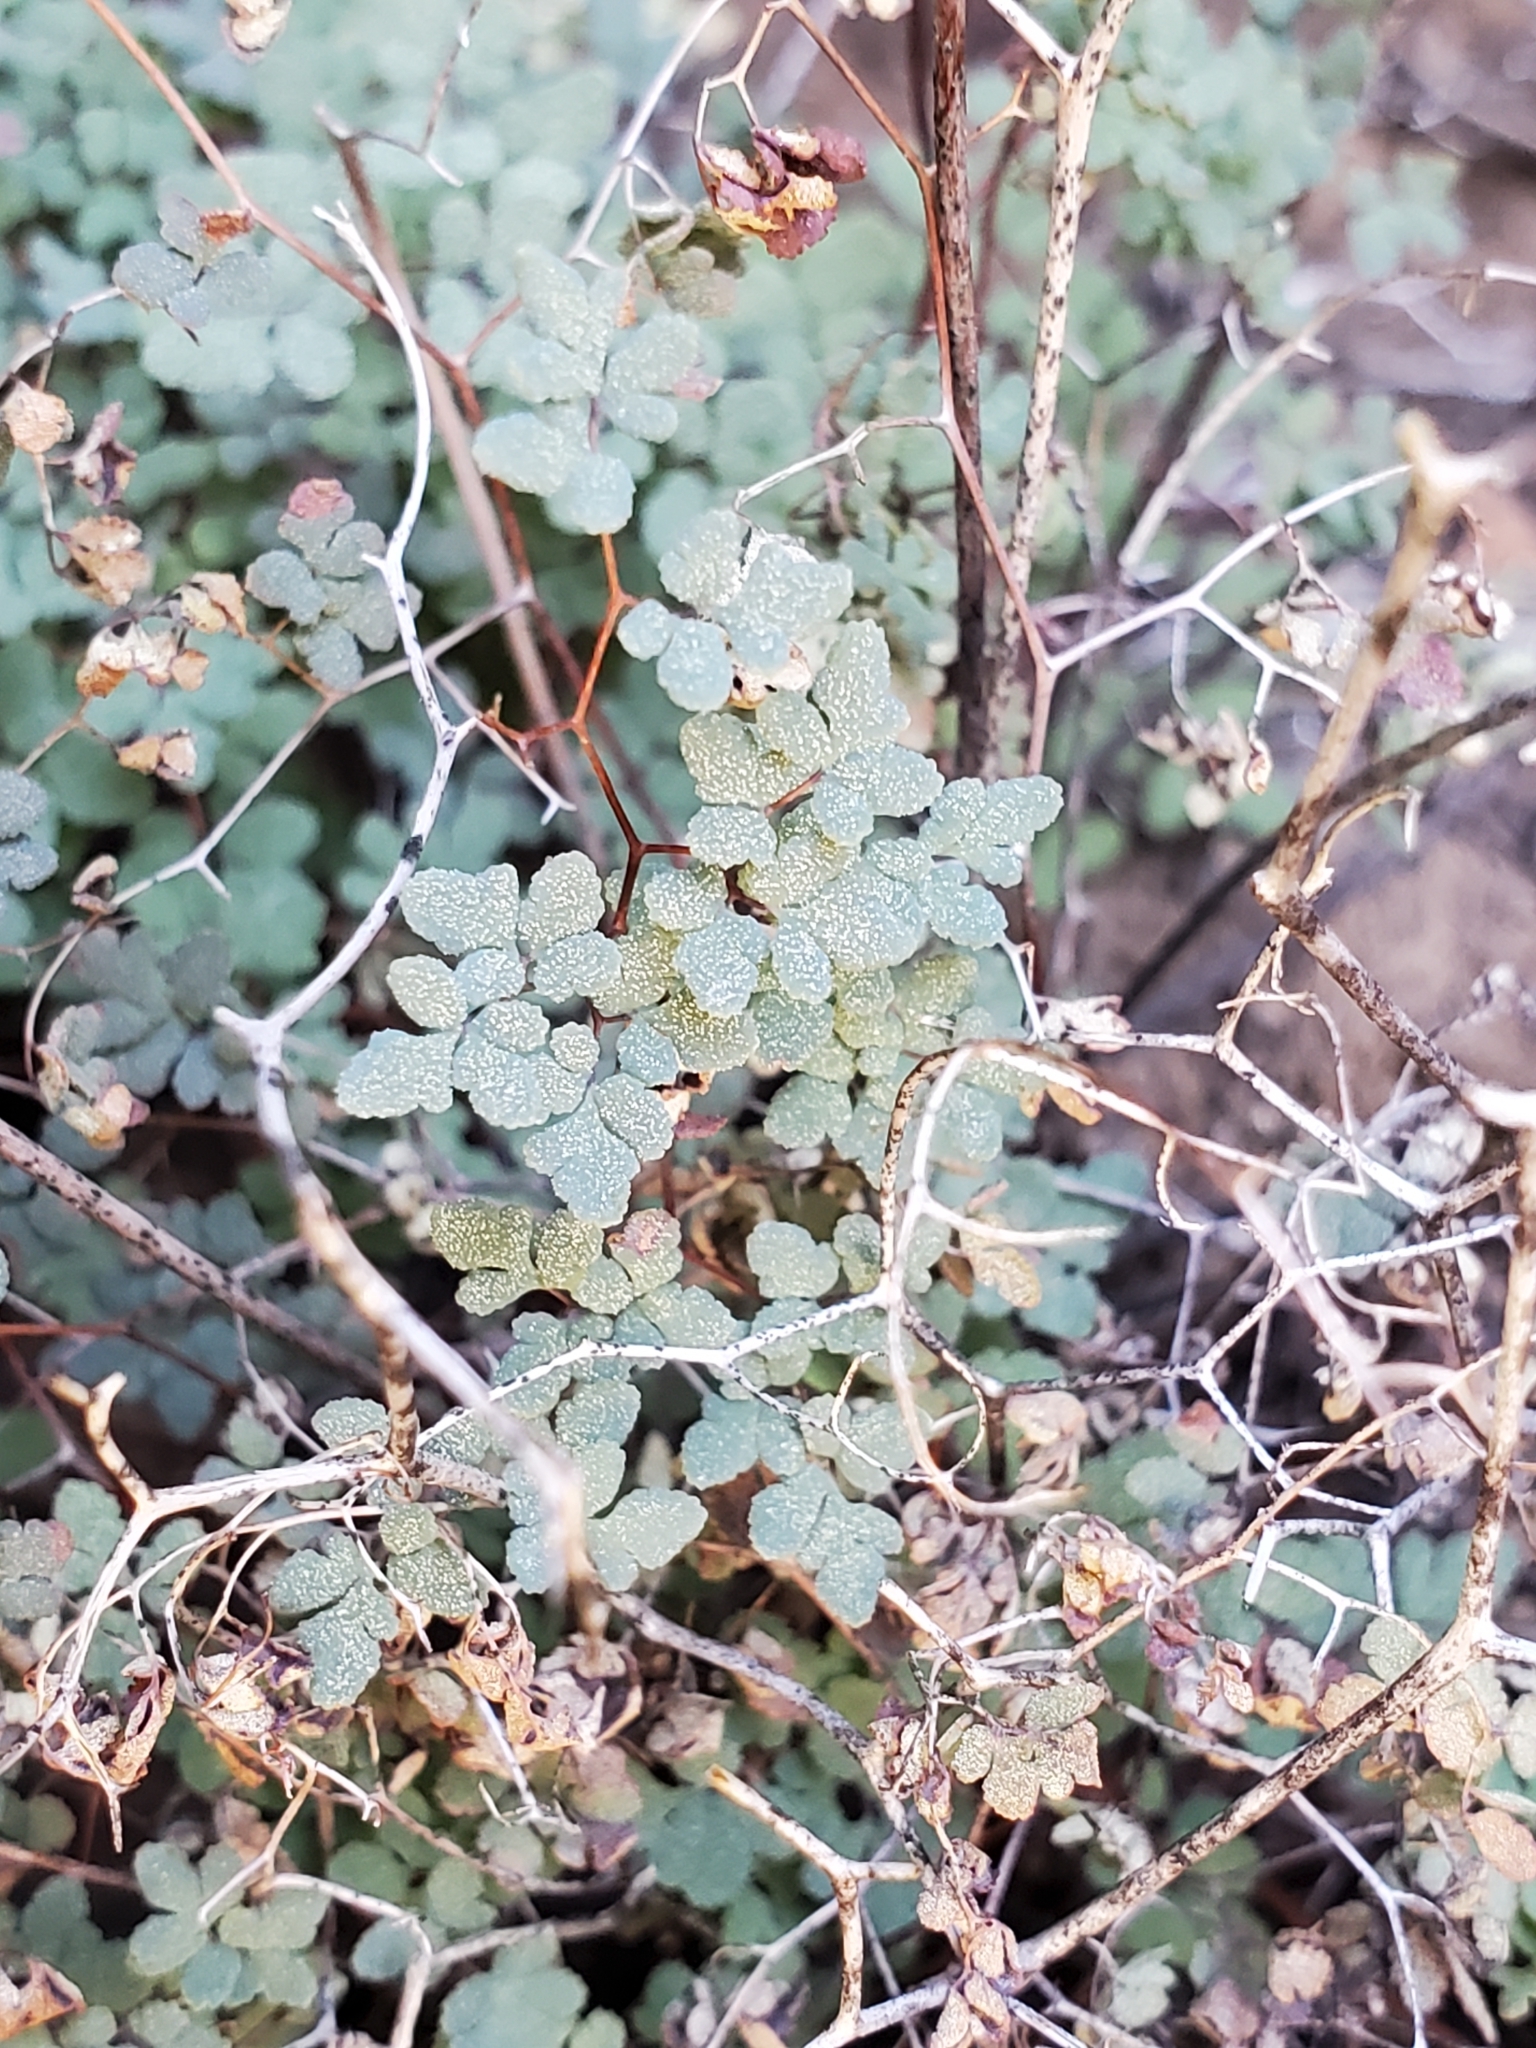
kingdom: Plantae
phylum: Tracheophyta
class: Polypodiopsida
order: Polypodiales
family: Pteridaceae
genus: Argyrochosma
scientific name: Argyrochosma fendleri
